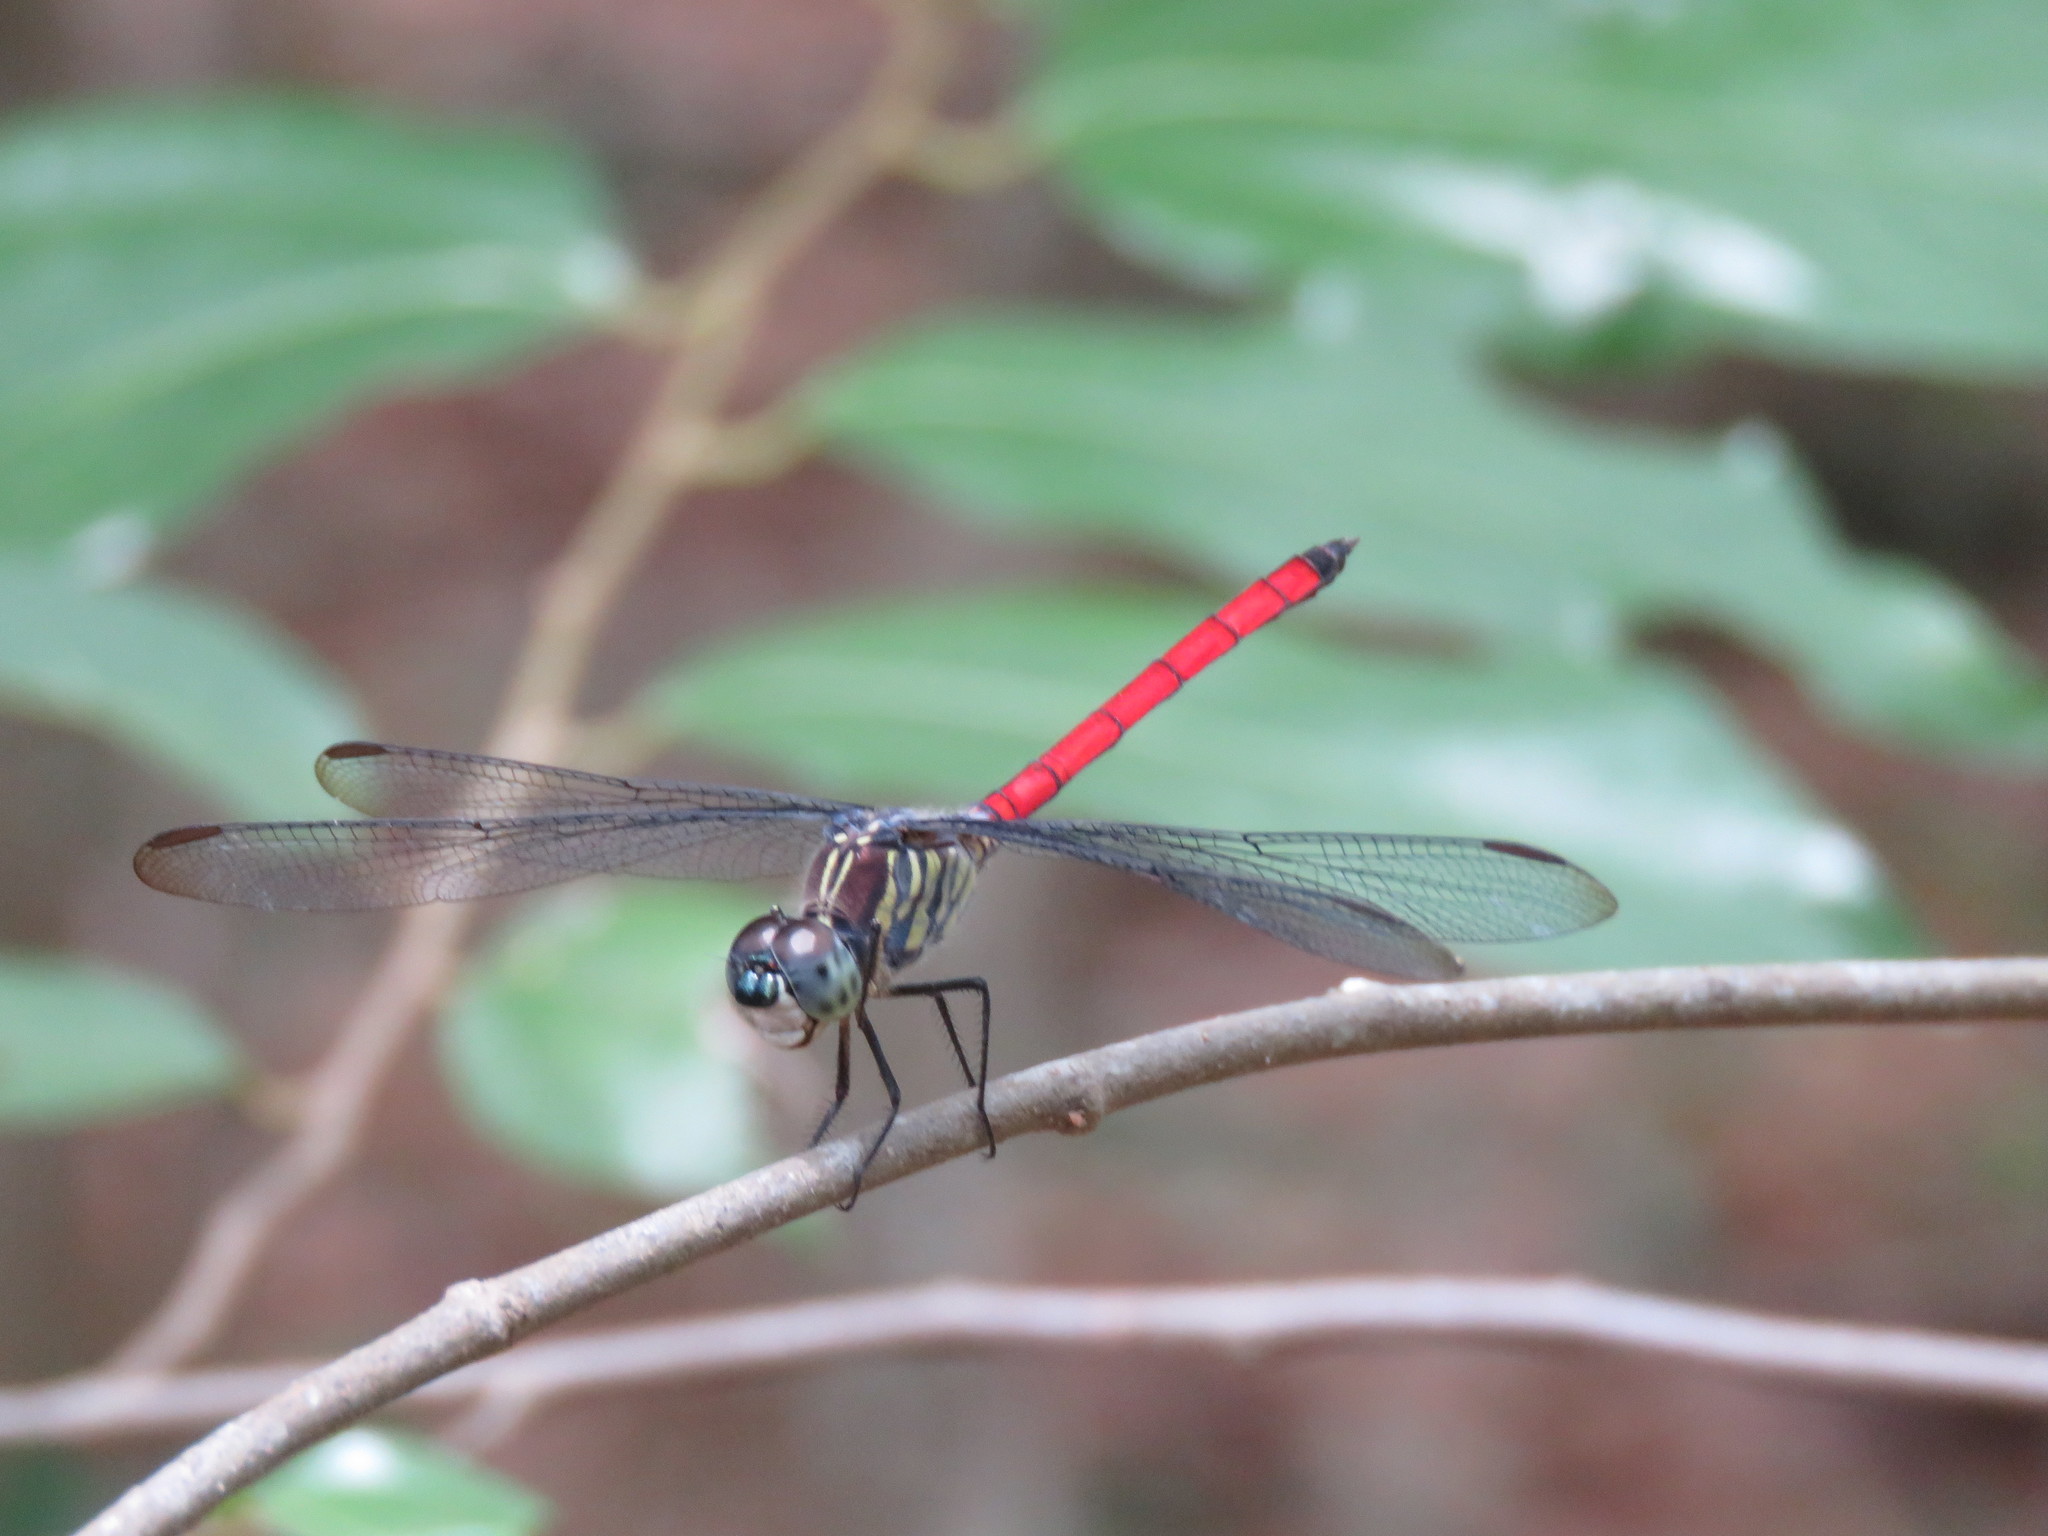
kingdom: Animalia
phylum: Arthropoda
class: Insecta
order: Odonata
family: Libellulidae
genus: Lathrecista
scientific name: Lathrecista asiatica
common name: Scarlet grenadier
